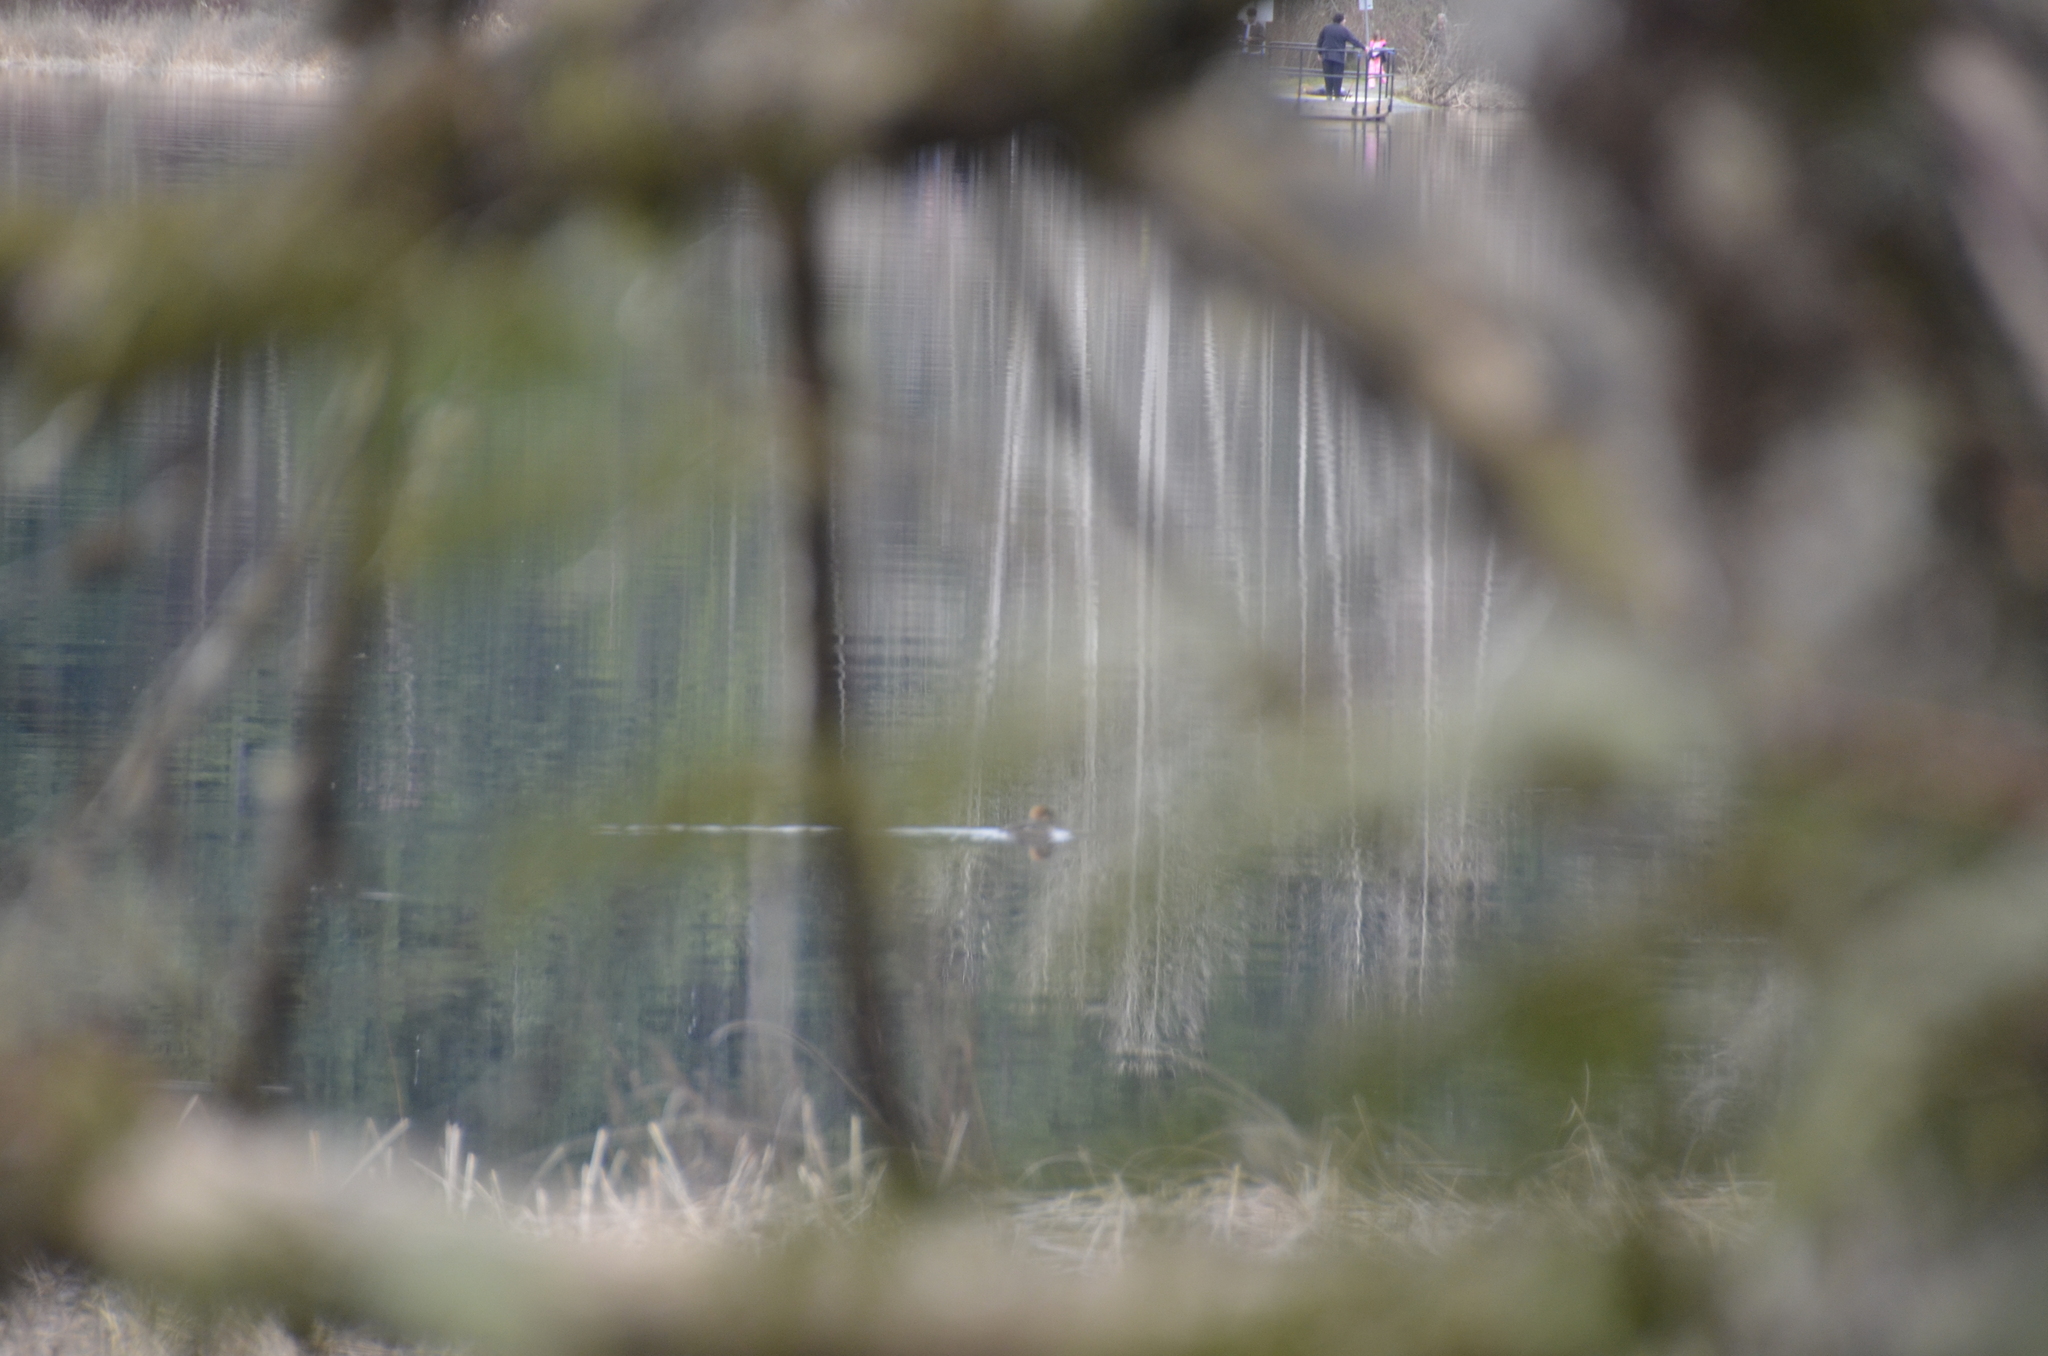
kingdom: Animalia
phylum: Chordata
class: Aves
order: Anseriformes
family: Anatidae
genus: Lophodytes
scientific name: Lophodytes cucullatus
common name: Hooded merganser
